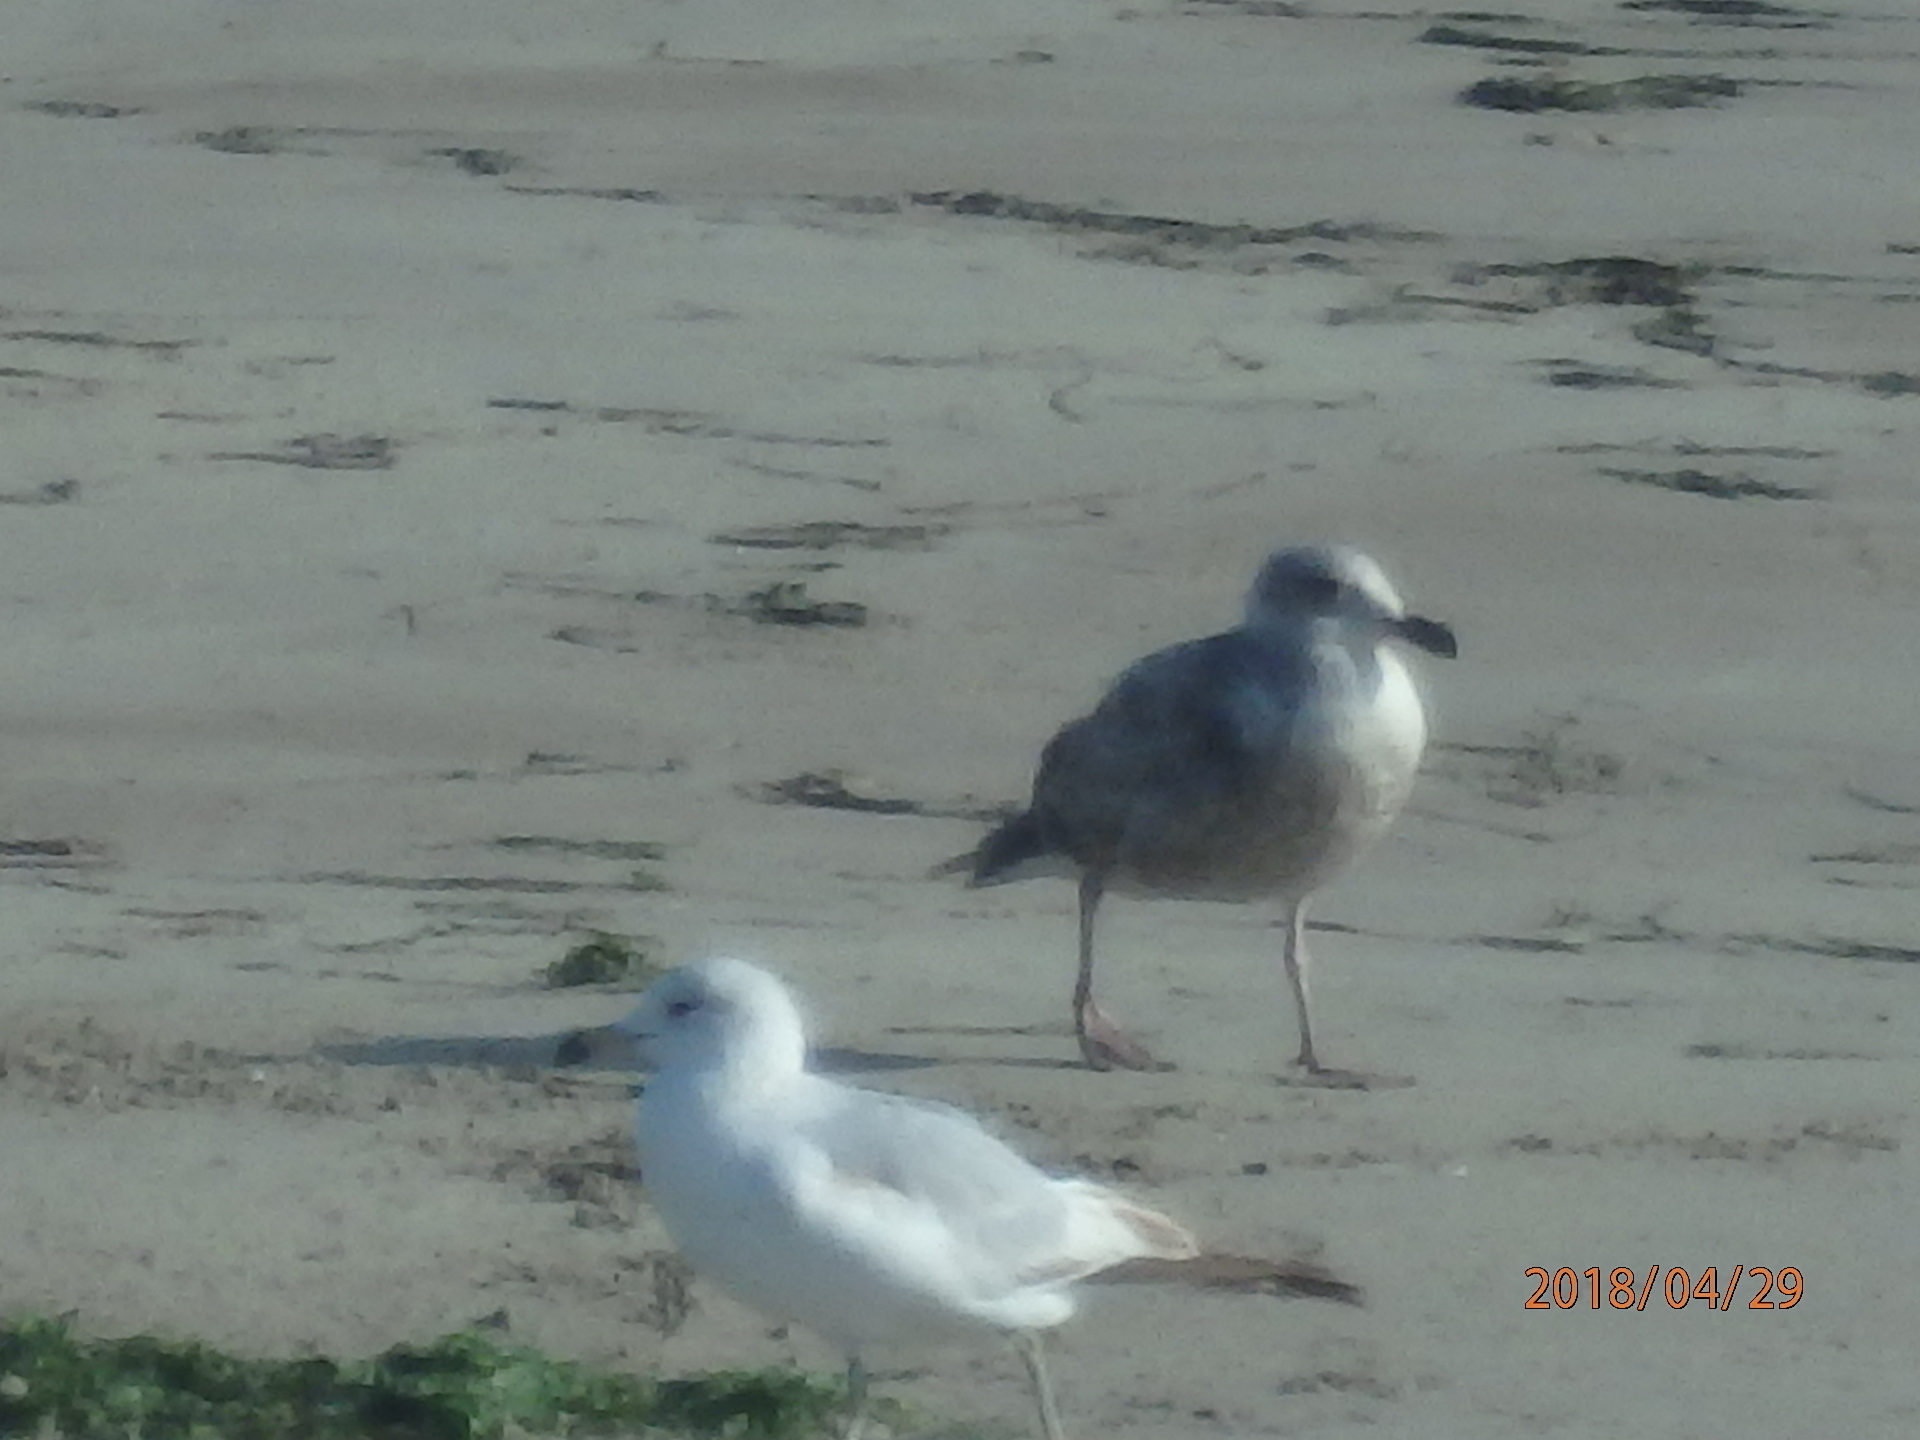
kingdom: Animalia
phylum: Chordata
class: Aves
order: Charadriiformes
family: Laridae
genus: Larus
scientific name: Larus delawarensis
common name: Ring-billed gull
